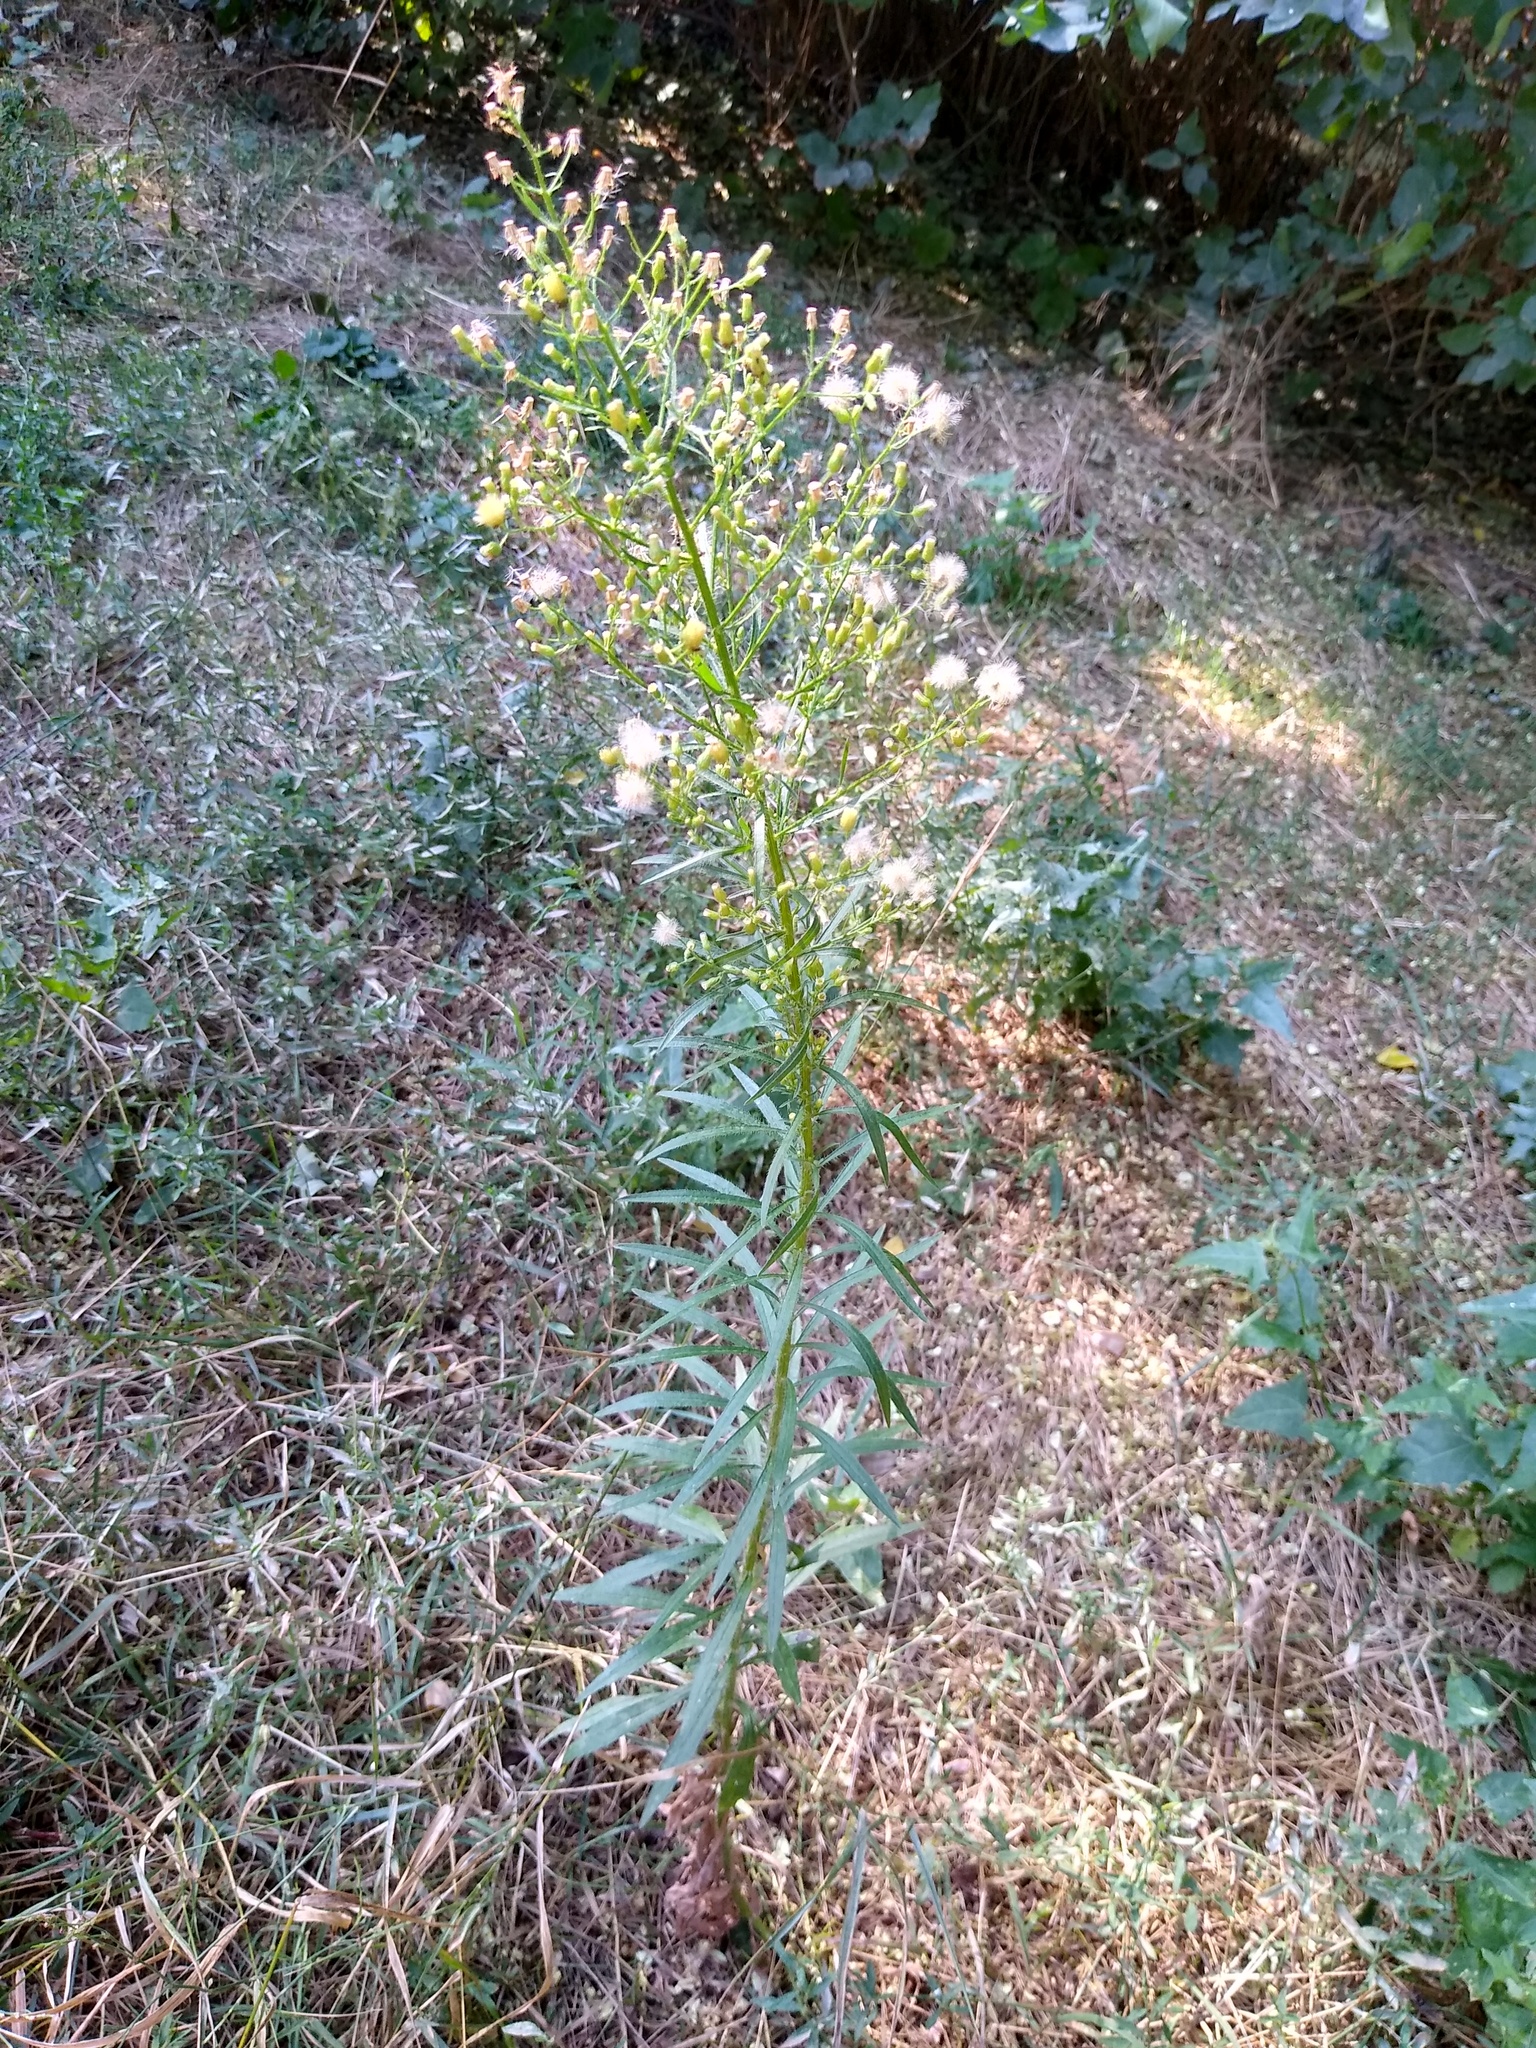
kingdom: Plantae
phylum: Tracheophyta
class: Magnoliopsida
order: Asterales
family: Asteraceae
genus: Erigeron
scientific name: Erigeron canadensis
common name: Canadian fleabane
